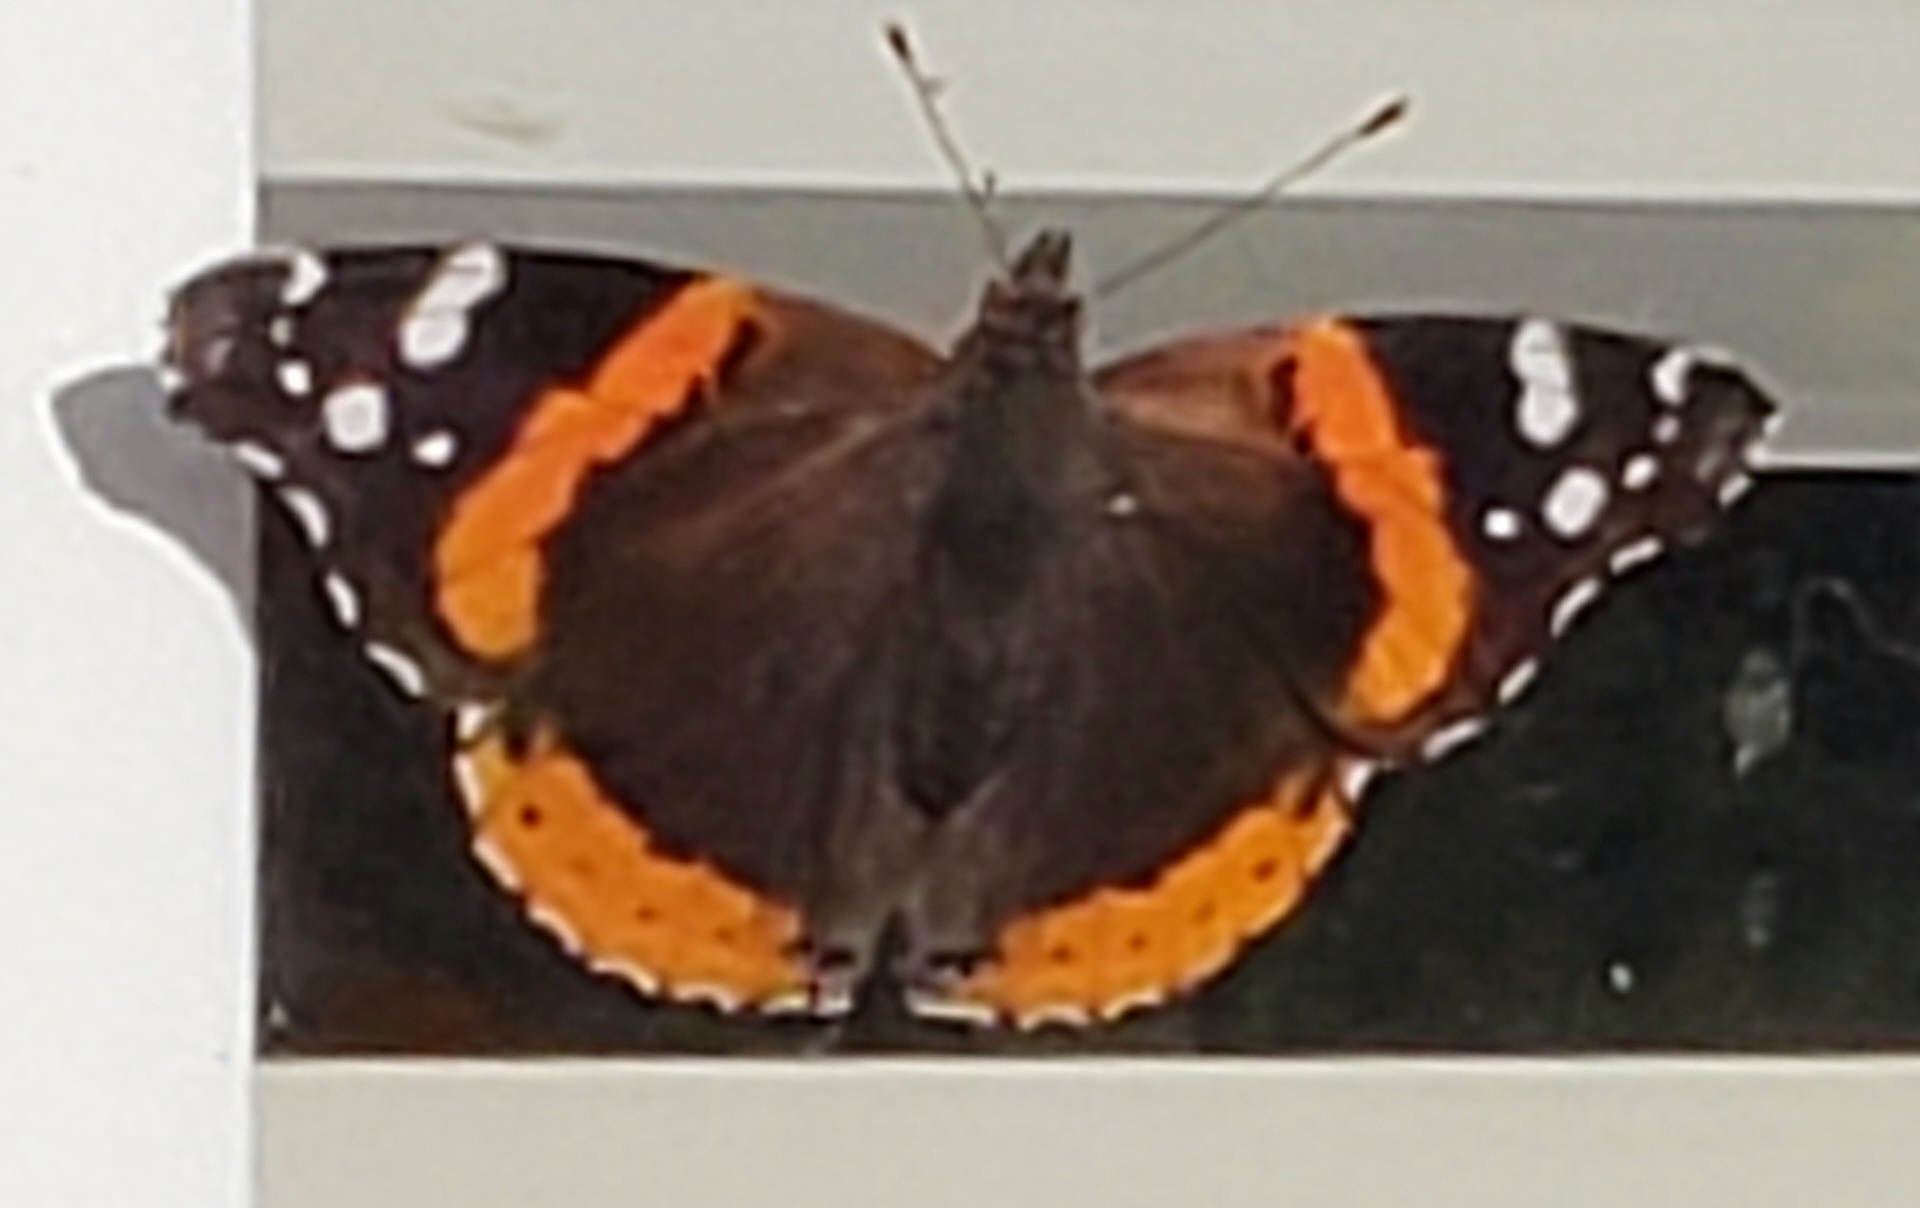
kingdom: Animalia
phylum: Arthropoda
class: Insecta
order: Lepidoptera
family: Nymphalidae
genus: Vanessa
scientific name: Vanessa atalanta
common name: Red admiral
